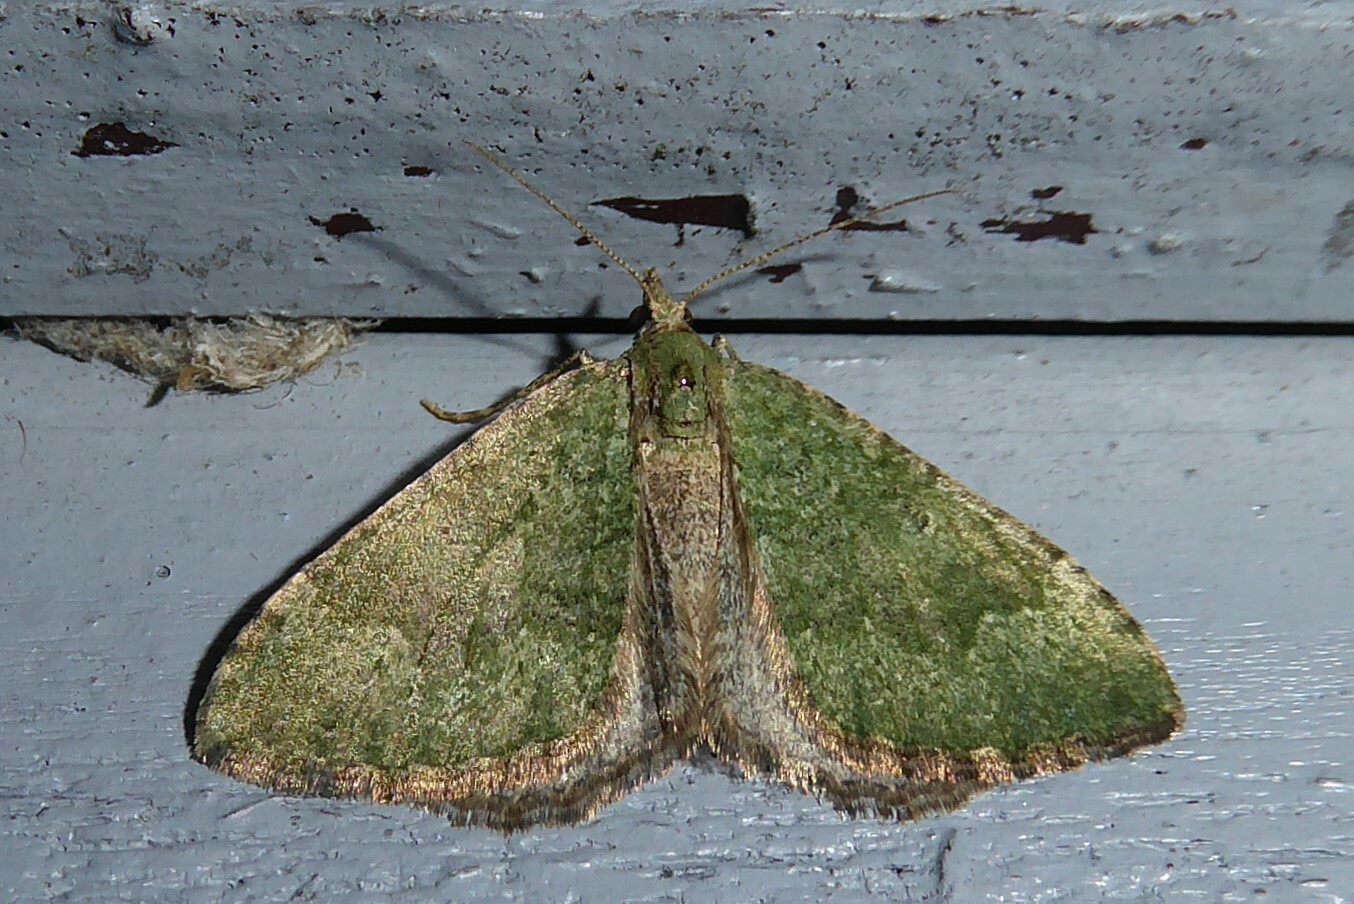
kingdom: Animalia
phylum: Arthropoda
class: Insecta
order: Lepidoptera
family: Geometridae
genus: Epyaxa
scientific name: Epyaxa rosearia
